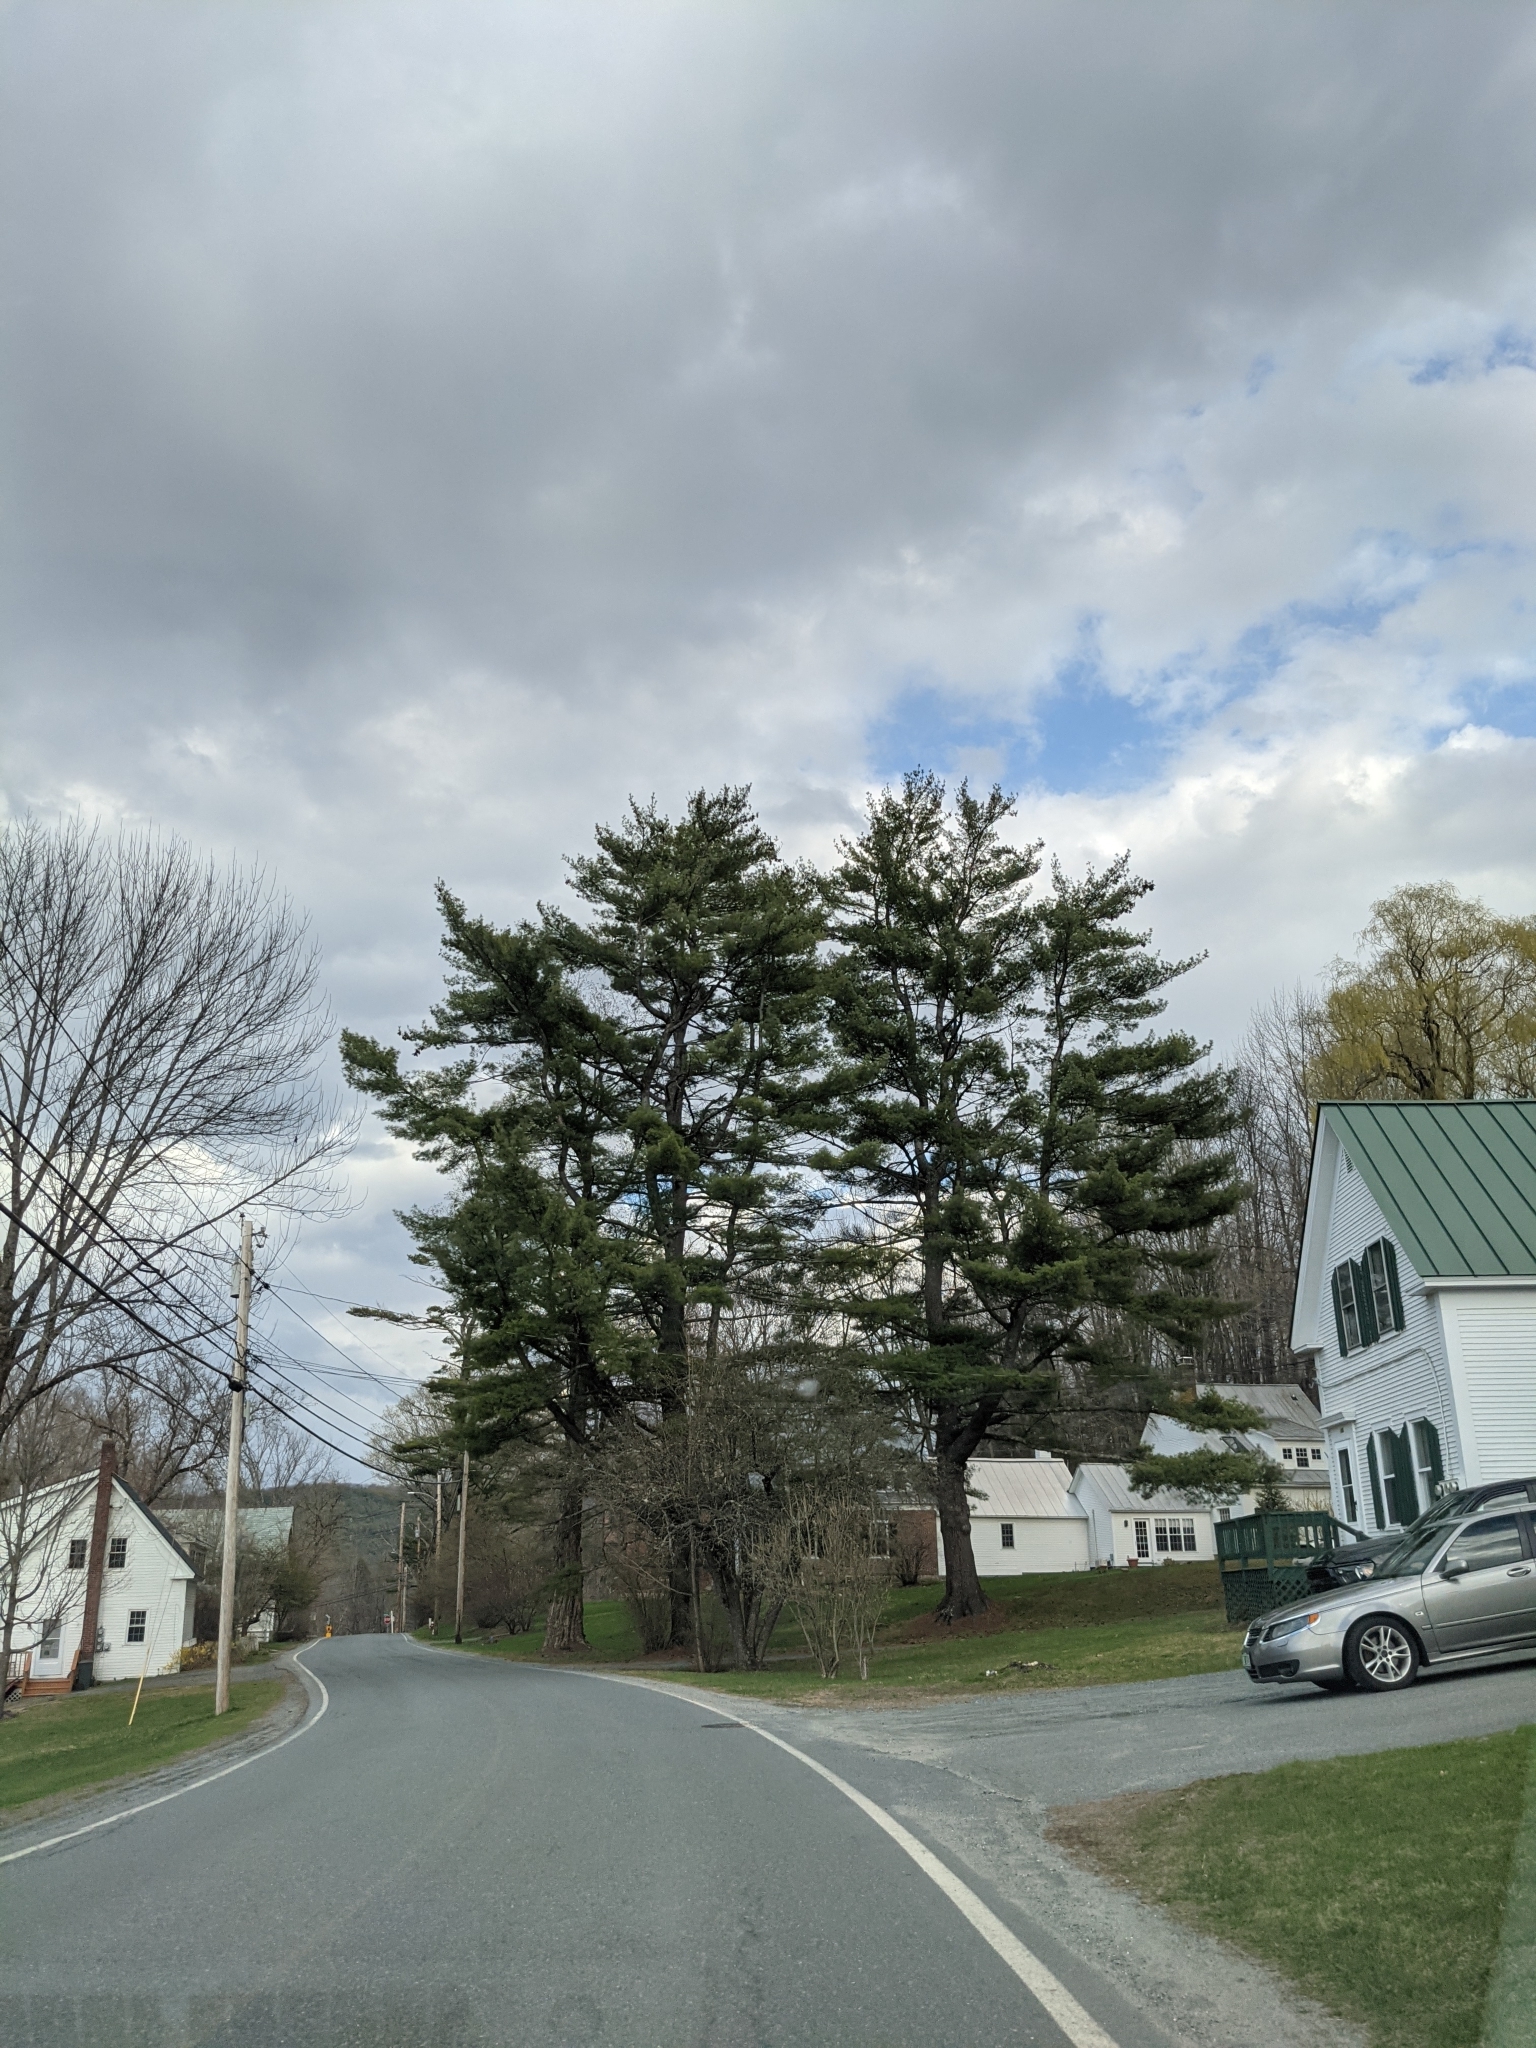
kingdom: Plantae
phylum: Tracheophyta
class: Pinopsida
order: Pinales
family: Pinaceae
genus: Pinus
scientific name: Pinus strobus
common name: Weymouth pine
